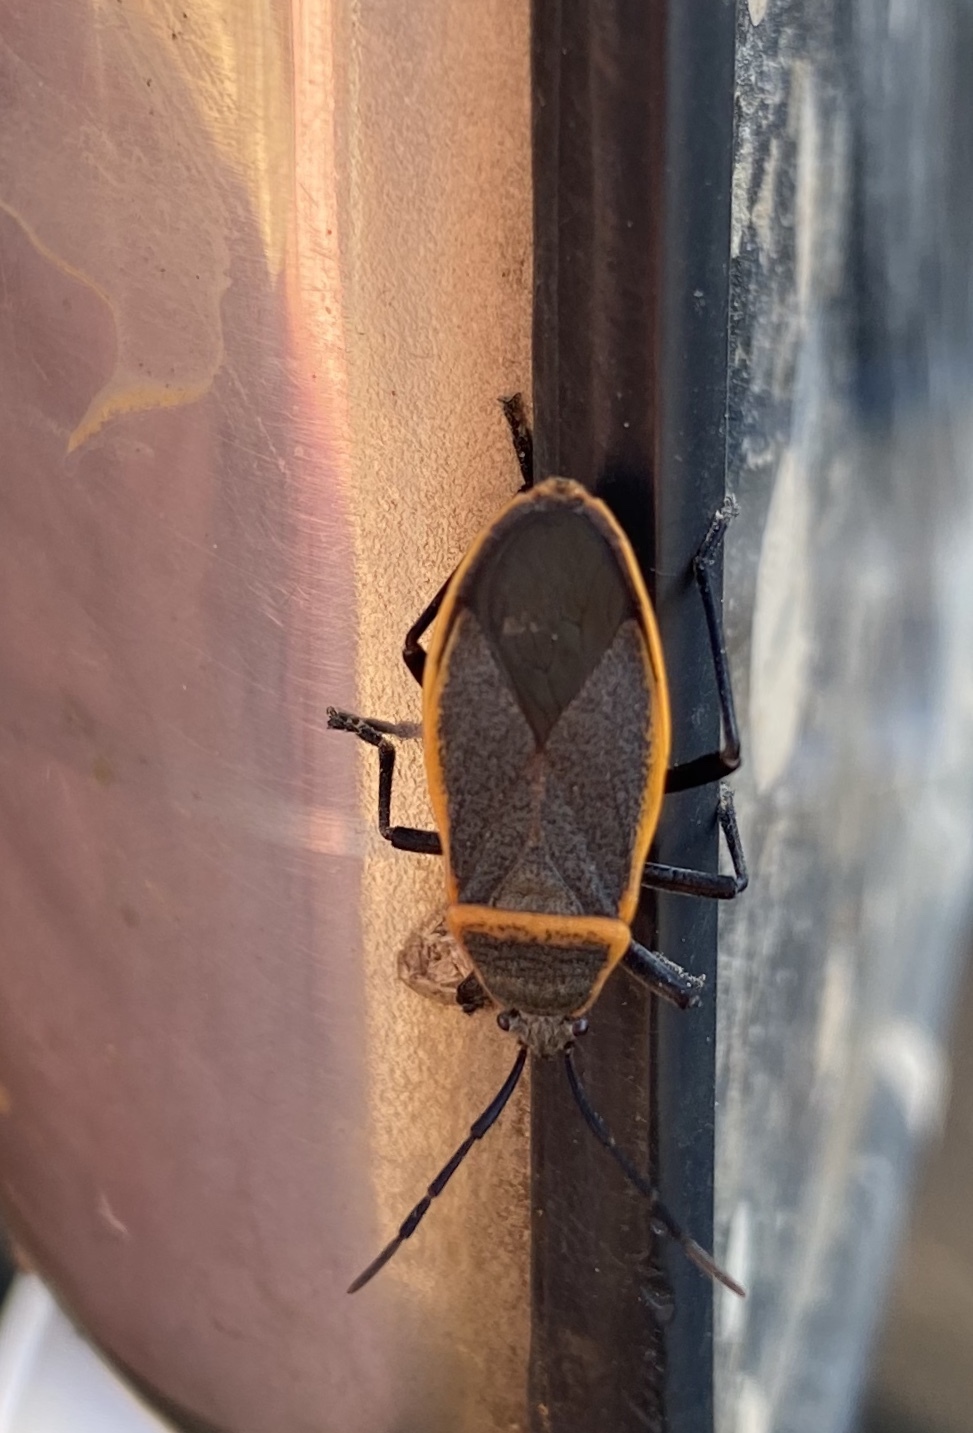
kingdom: Animalia
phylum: Arthropoda
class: Insecta
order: Hemiptera
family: Largidae
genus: Largus
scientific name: Largus succinctus
